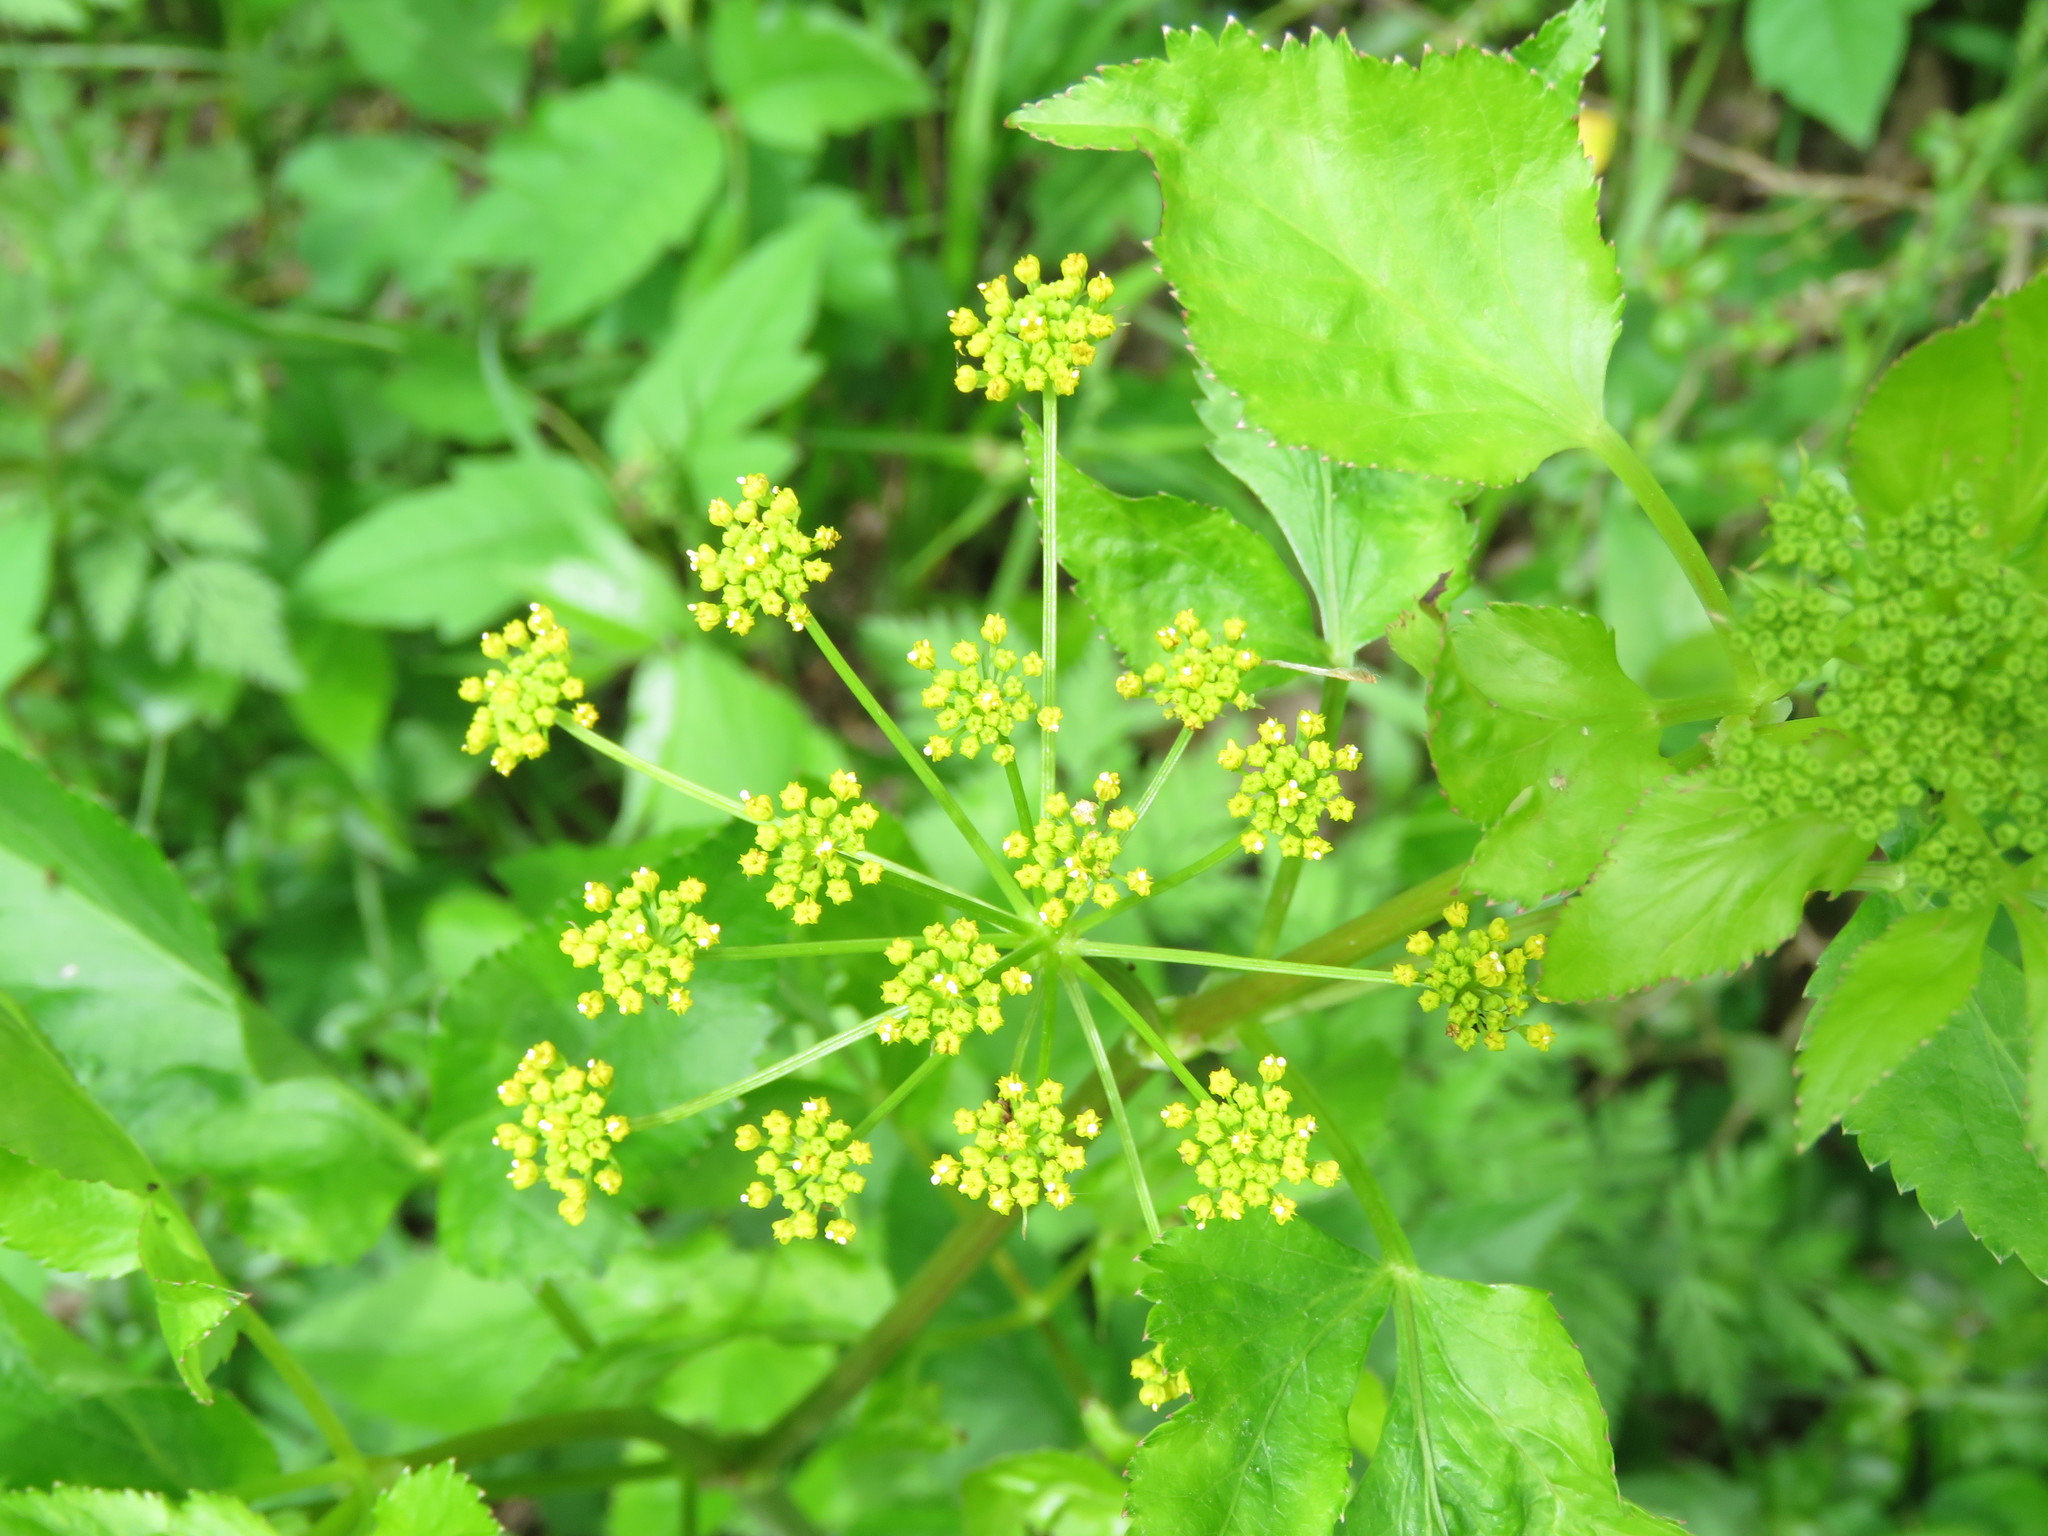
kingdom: Plantae
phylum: Tracheophyta
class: Magnoliopsida
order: Apiales
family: Apiaceae
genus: Zizia
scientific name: Zizia aurea
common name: Golden alexanders
